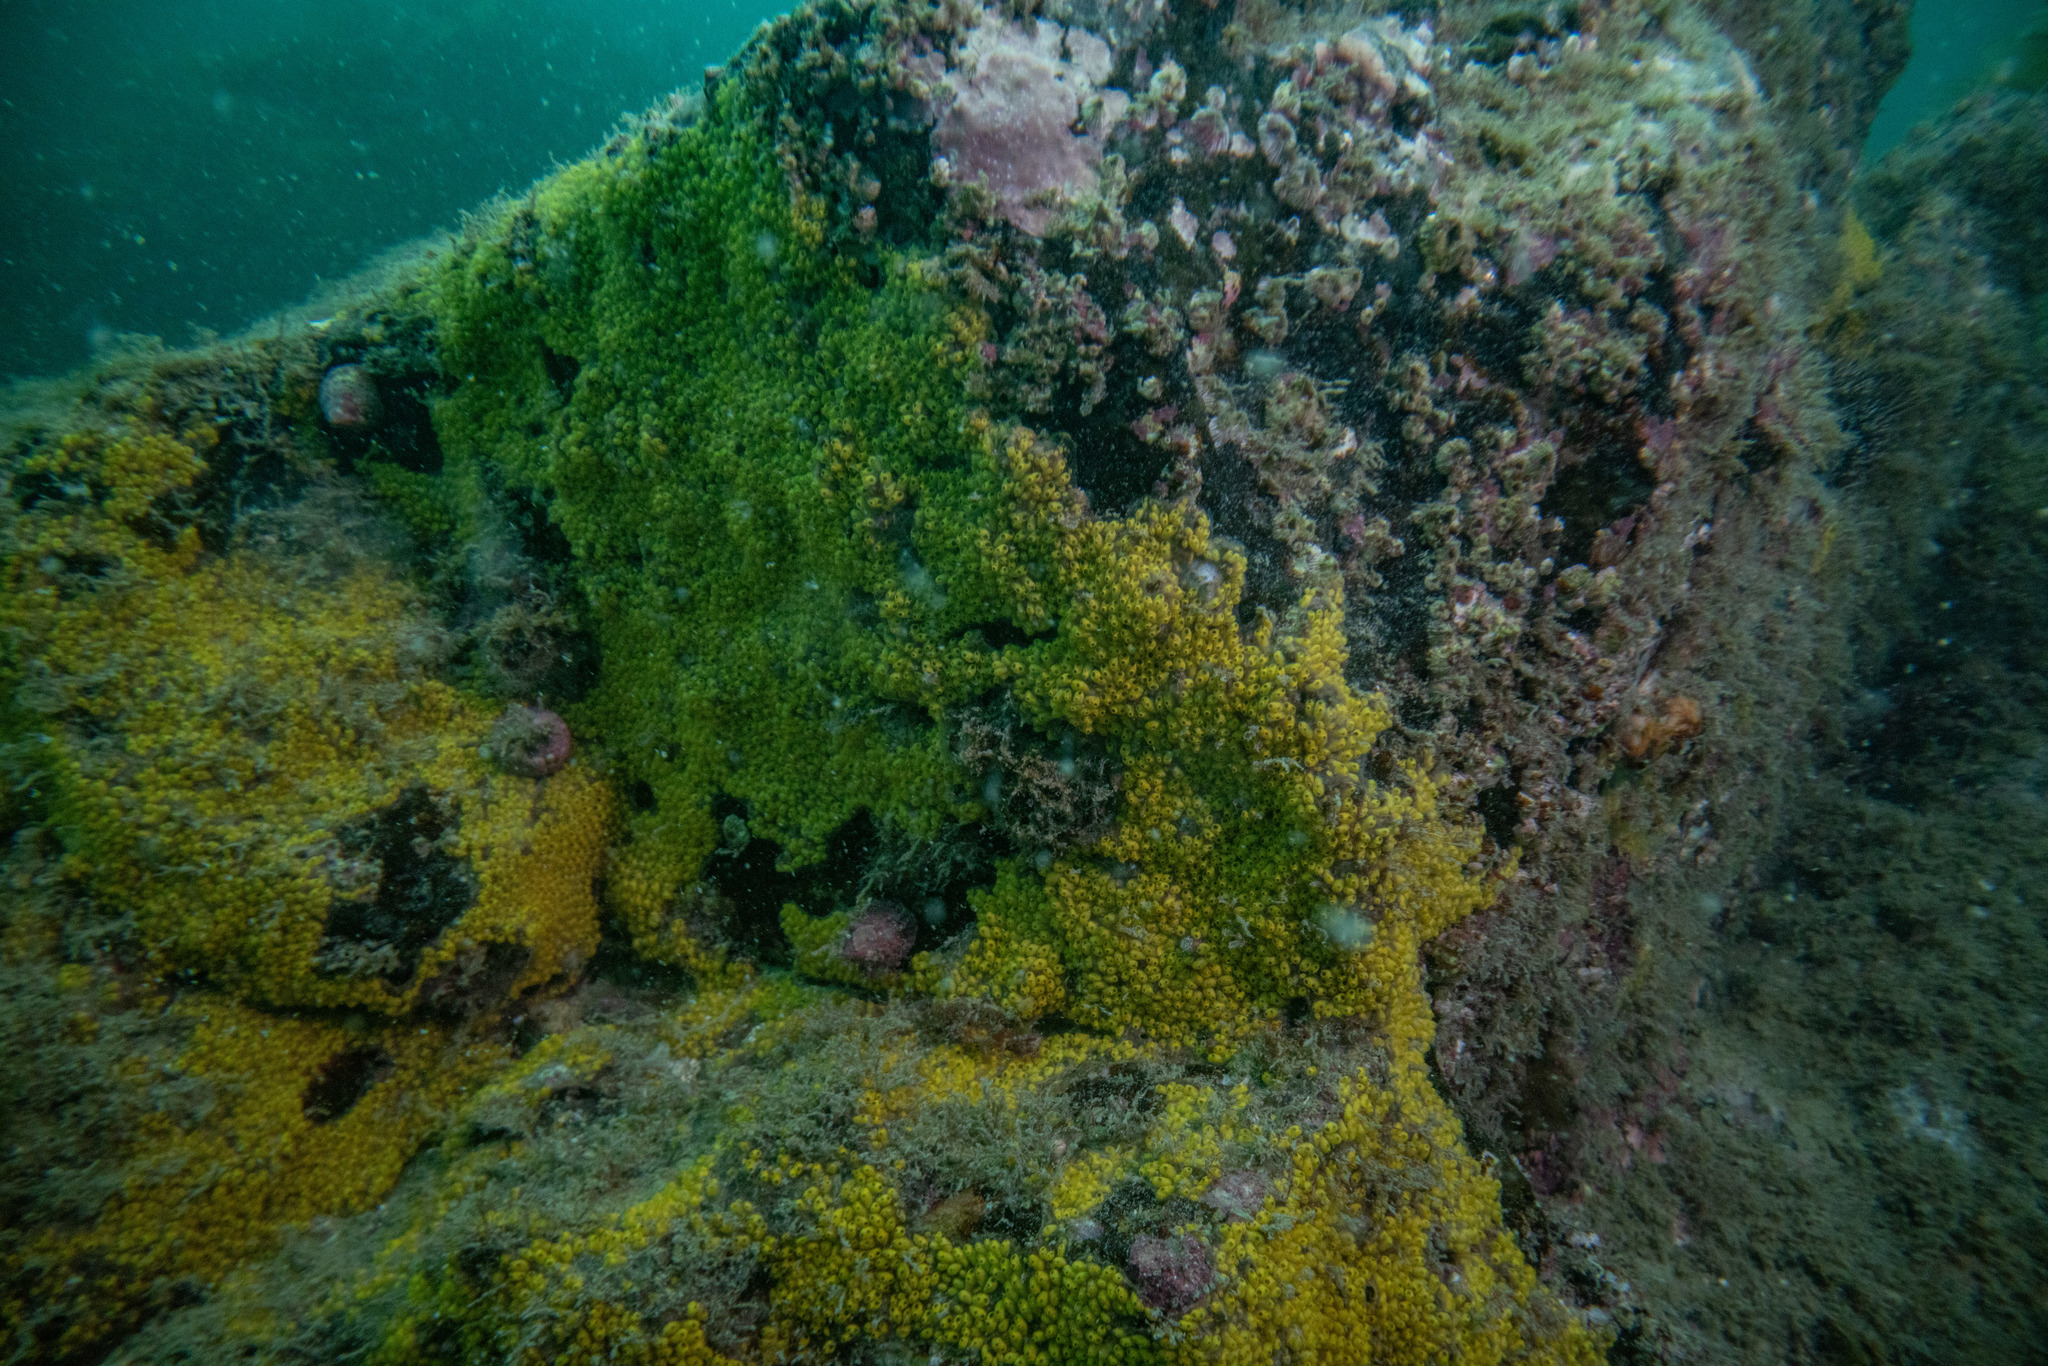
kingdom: Animalia
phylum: Chordata
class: Ascidiacea
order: Stolidobranchia
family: Styelidae
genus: Symplegma
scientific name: Symplegma brakenhielmi
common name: Ascidian
